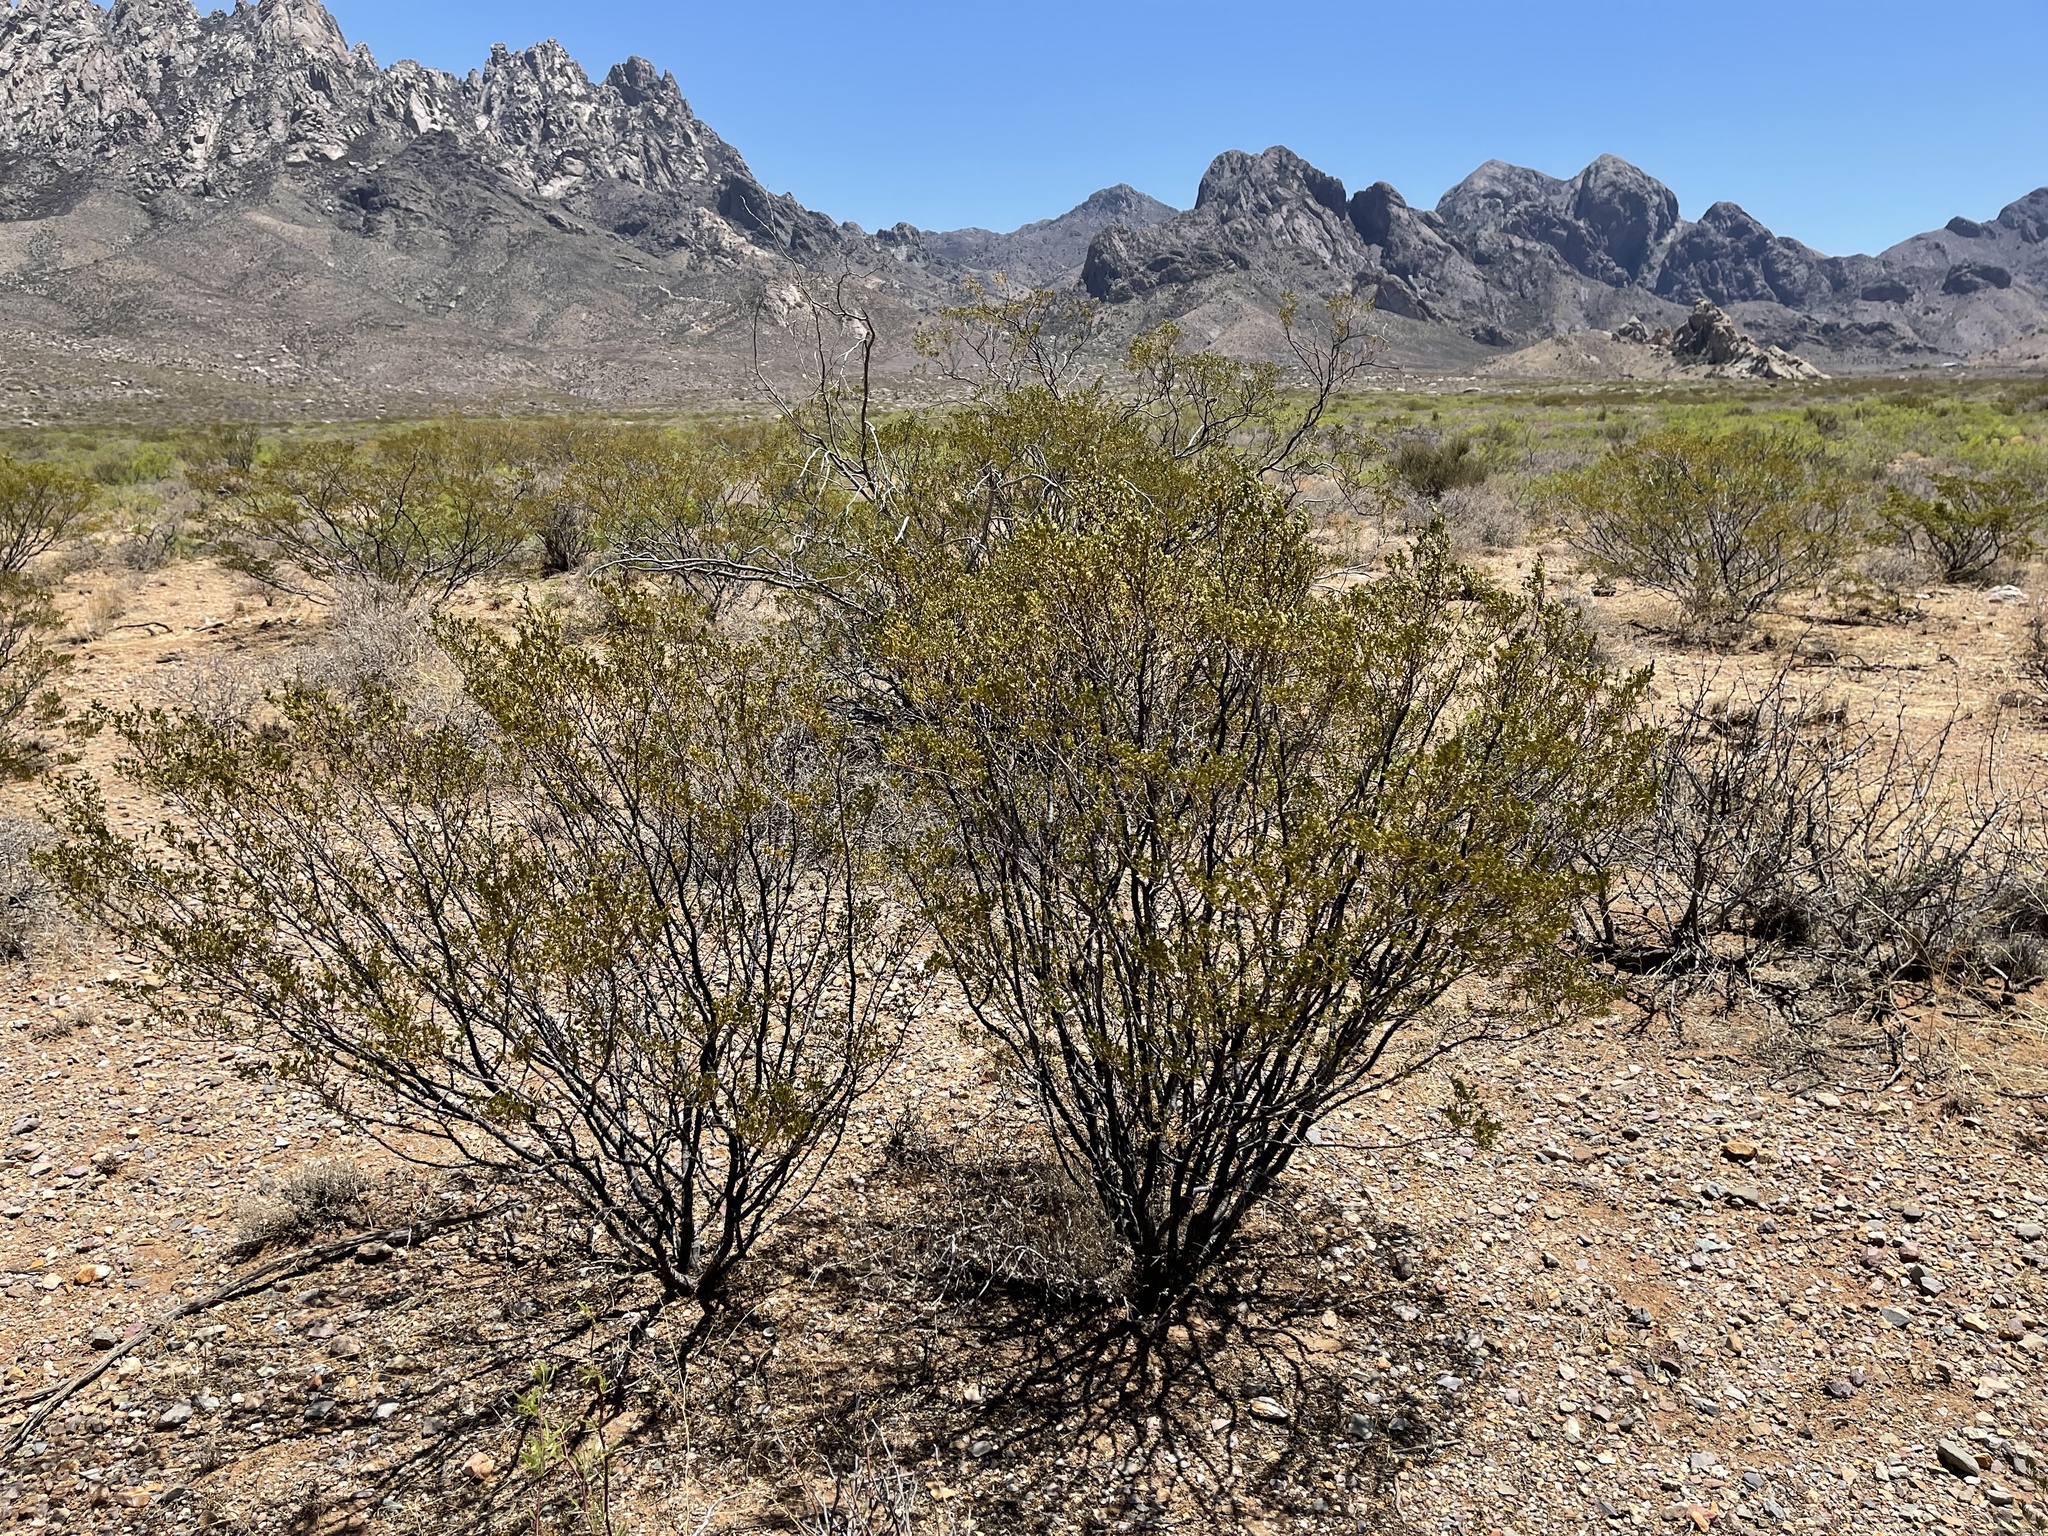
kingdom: Plantae
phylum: Tracheophyta
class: Magnoliopsida
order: Zygophyllales
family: Zygophyllaceae
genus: Larrea
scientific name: Larrea tridentata
